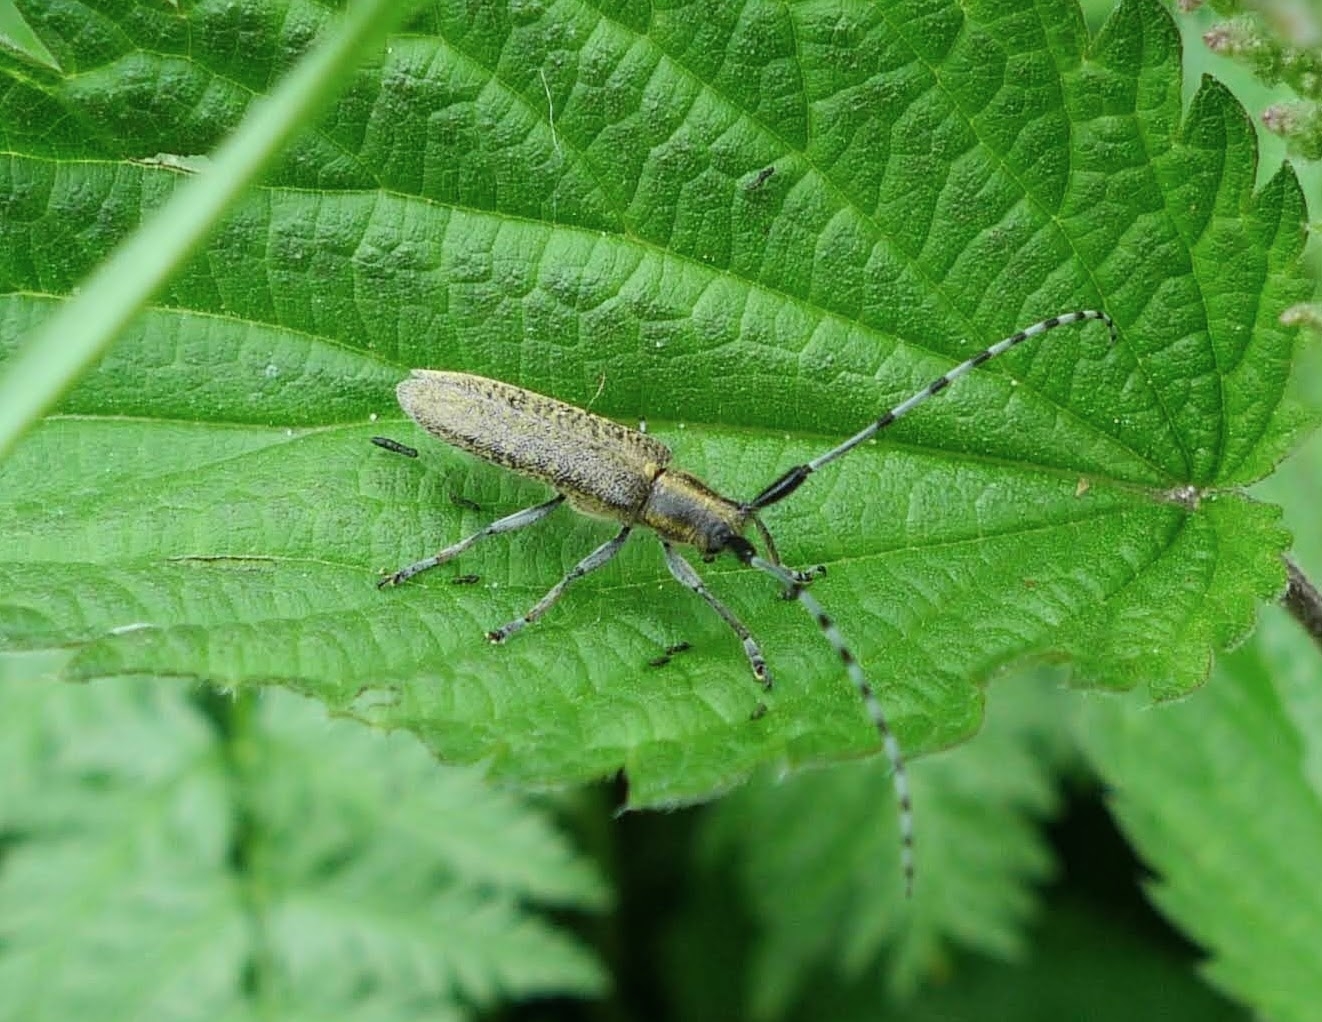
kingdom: Animalia
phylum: Arthropoda
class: Insecta
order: Coleoptera
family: Cerambycidae
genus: Agapanthia
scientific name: Agapanthia villosoviridescens
